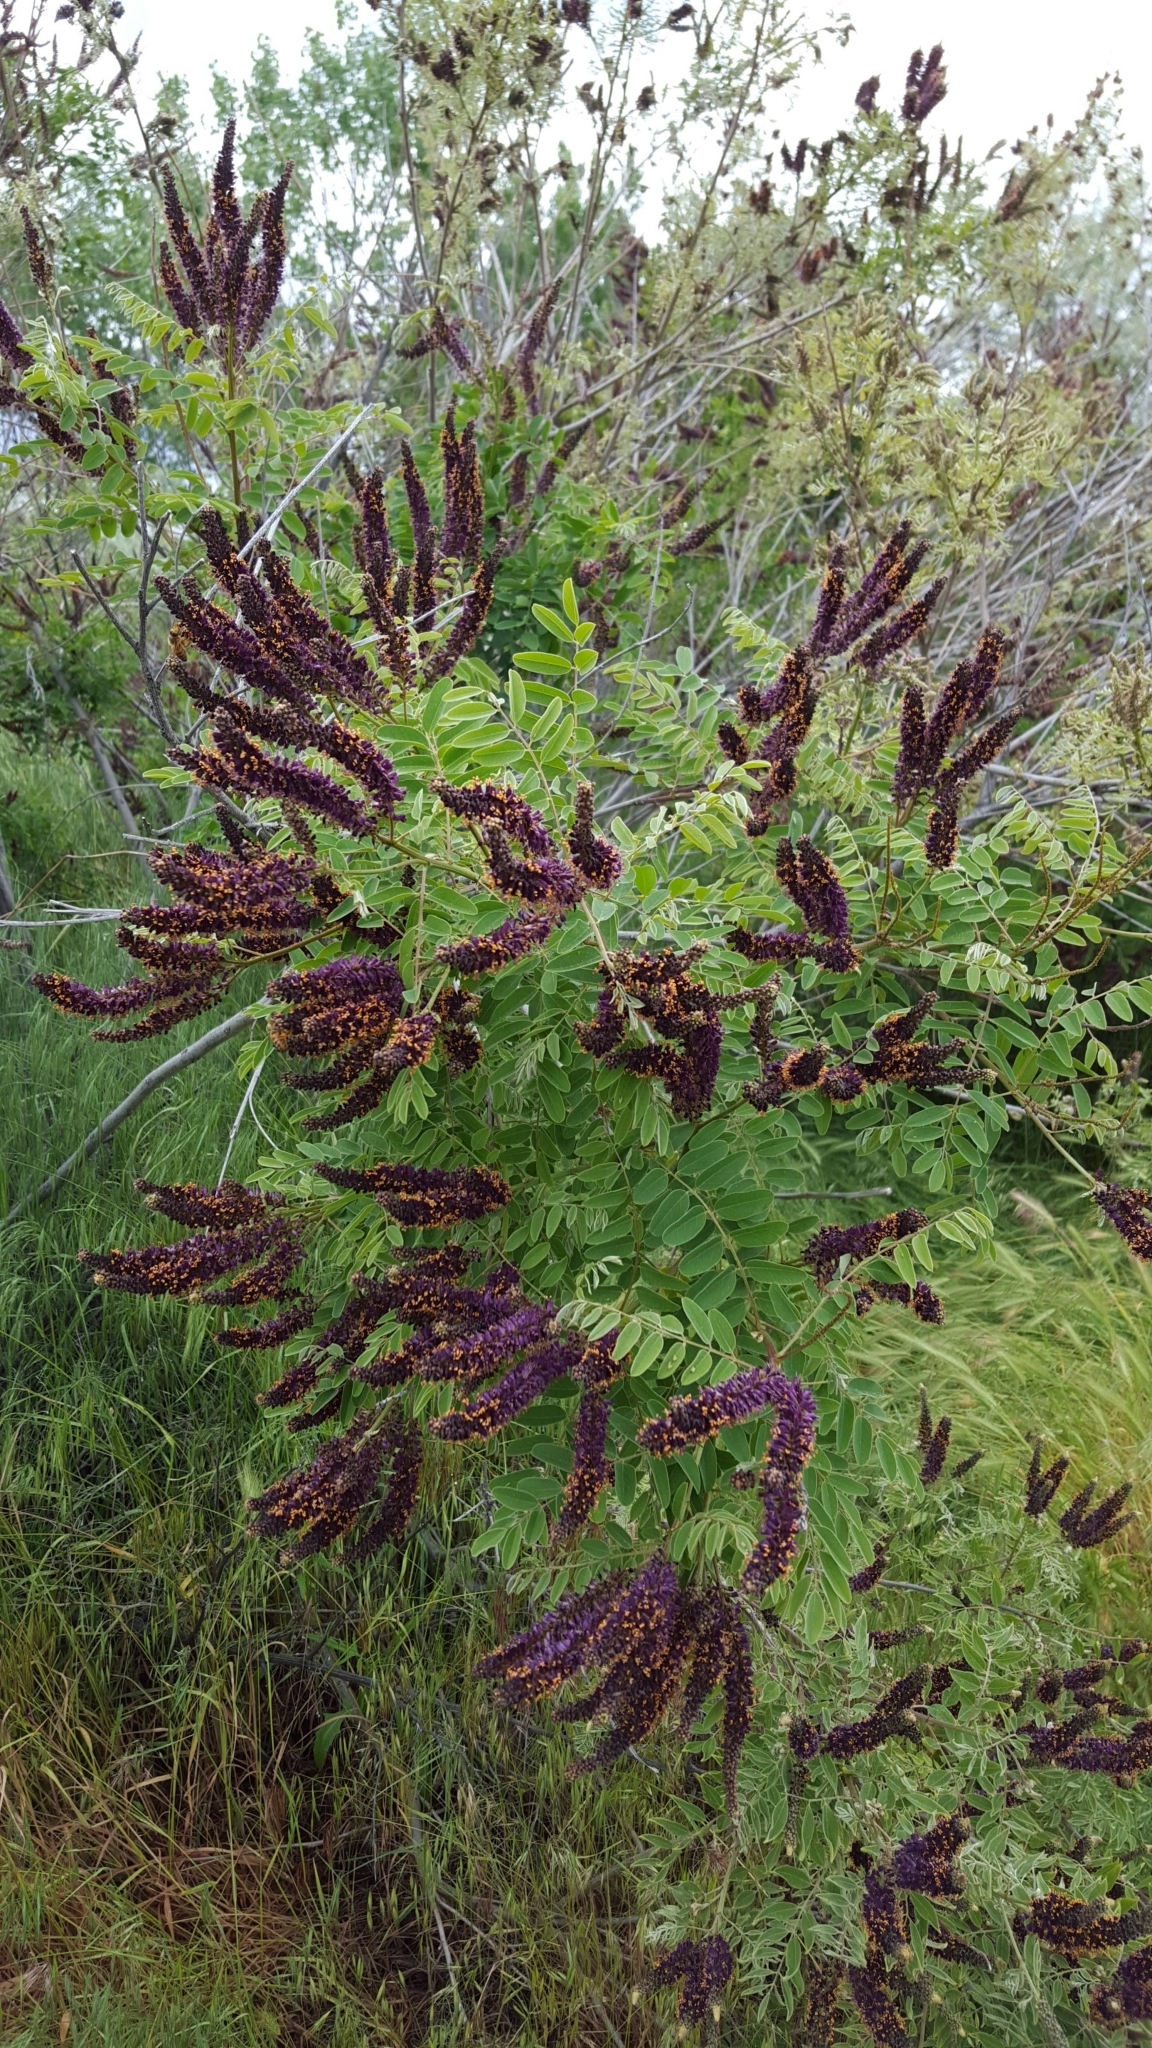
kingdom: Plantae
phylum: Tracheophyta
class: Magnoliopsida
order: Fabales
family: Fabaceae
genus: Amorpha
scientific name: Amorpha fruticosa
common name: False indigo
